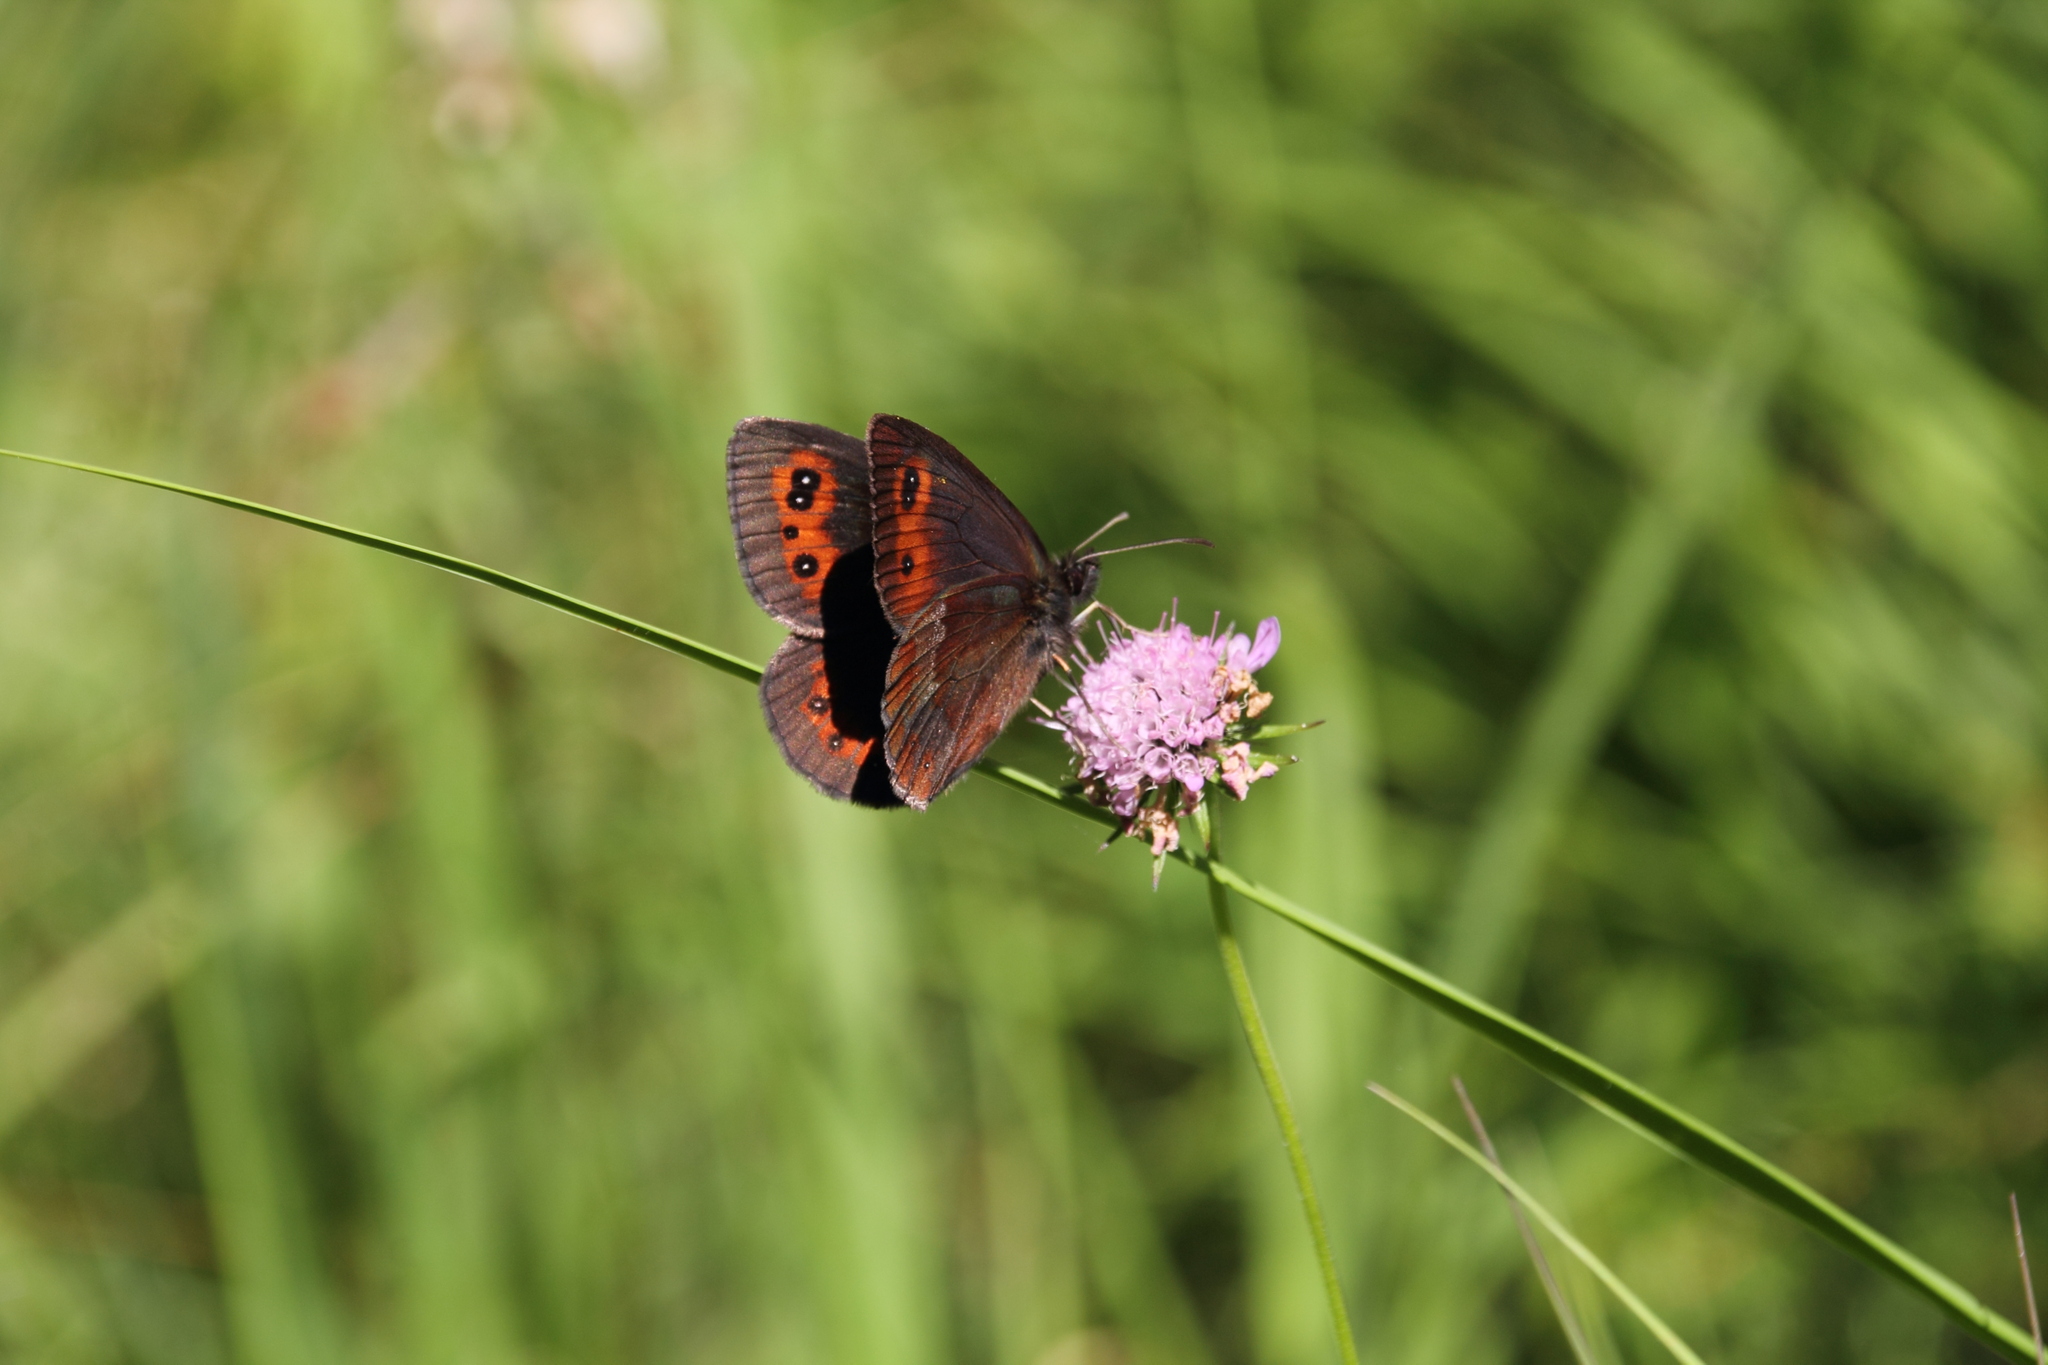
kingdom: Animalia
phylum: Arthropoda
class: Insecta
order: Lepidoptera
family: Nymphalidae
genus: Erebia
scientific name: Erebia aethiops
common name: Scotch argus
